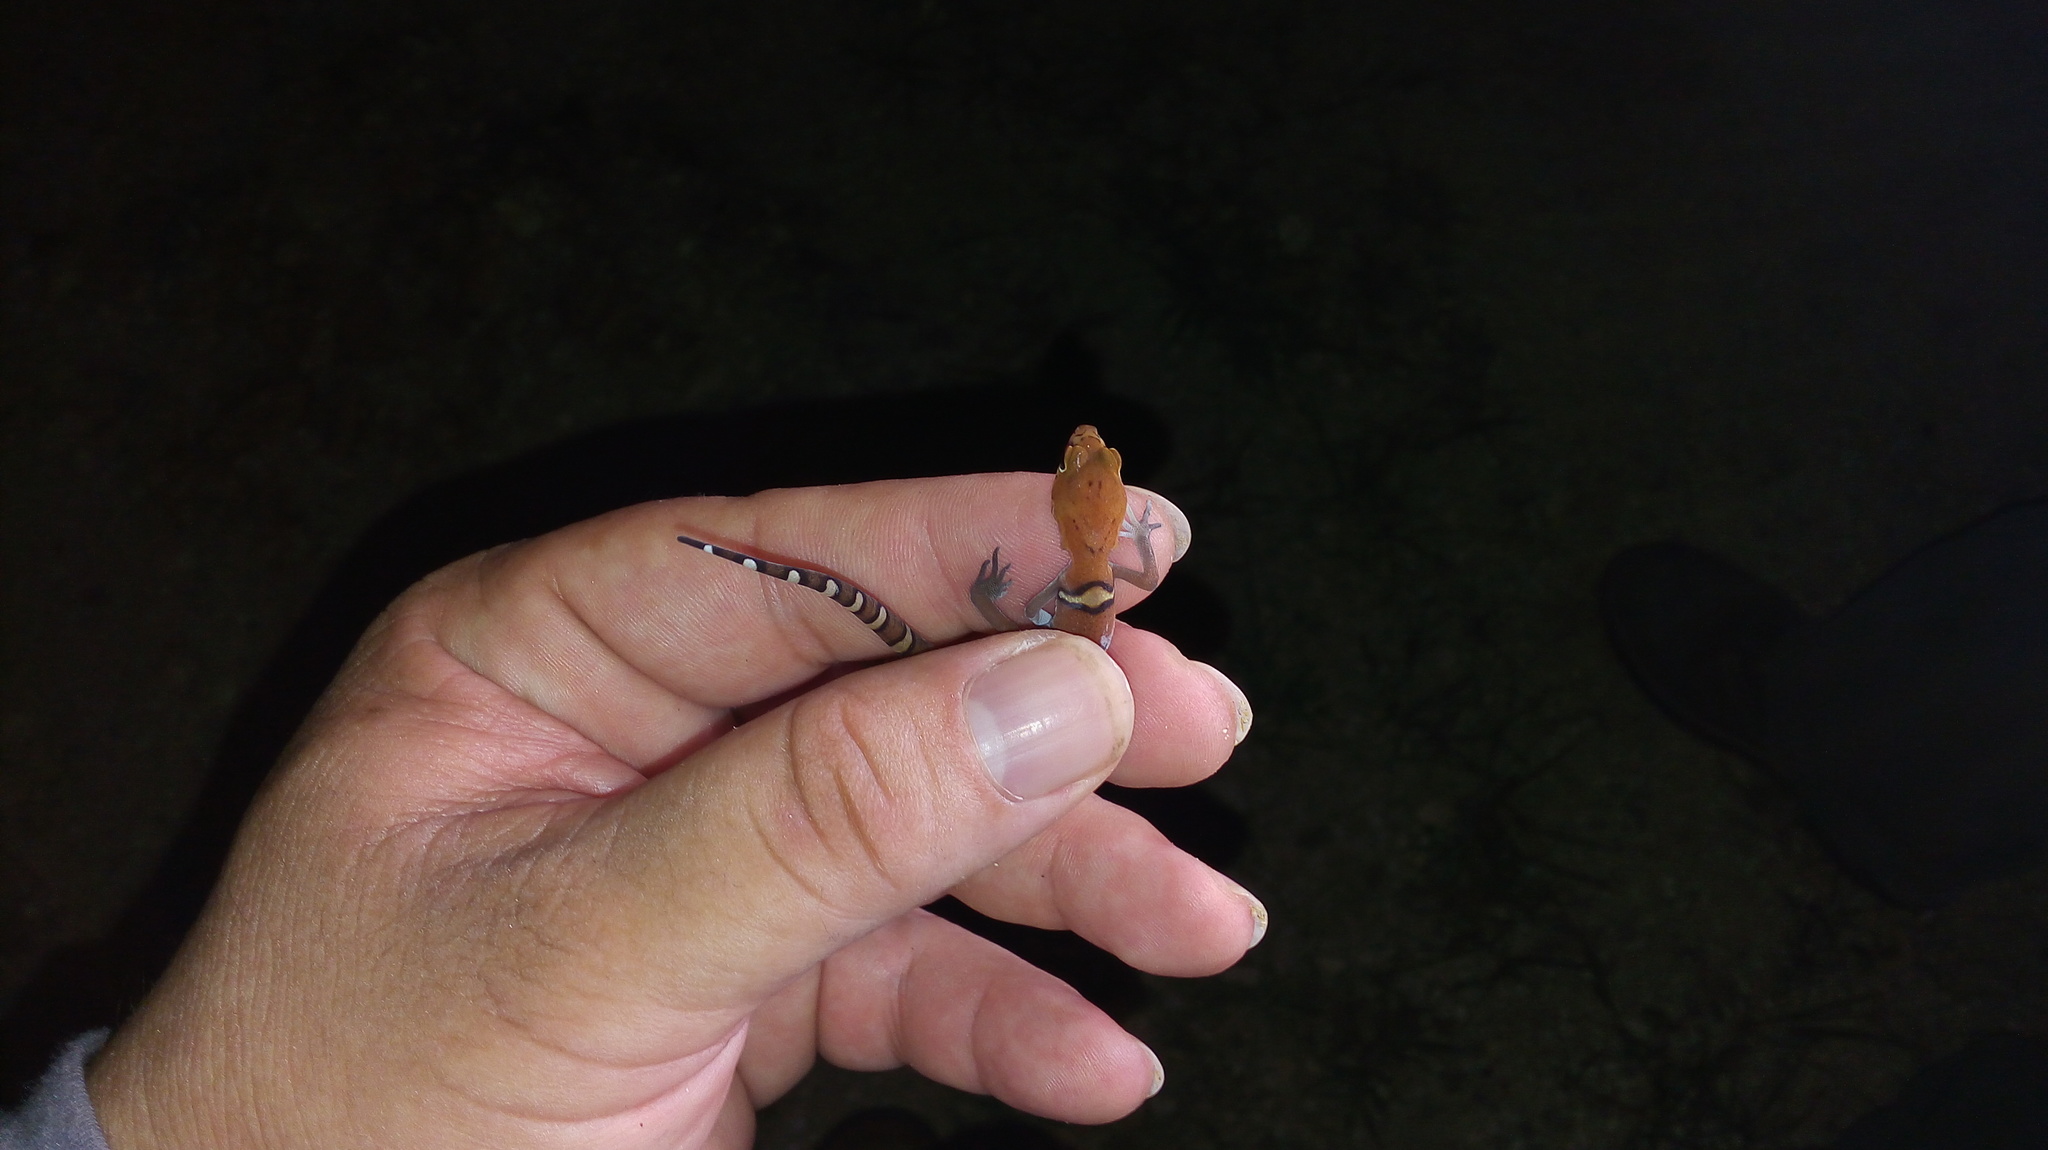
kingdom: Animalia
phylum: Chordata
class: Squamata
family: Eublepharidae
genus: Coleonyx
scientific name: Coleonyx elegans
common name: Yucatan banded gecko
